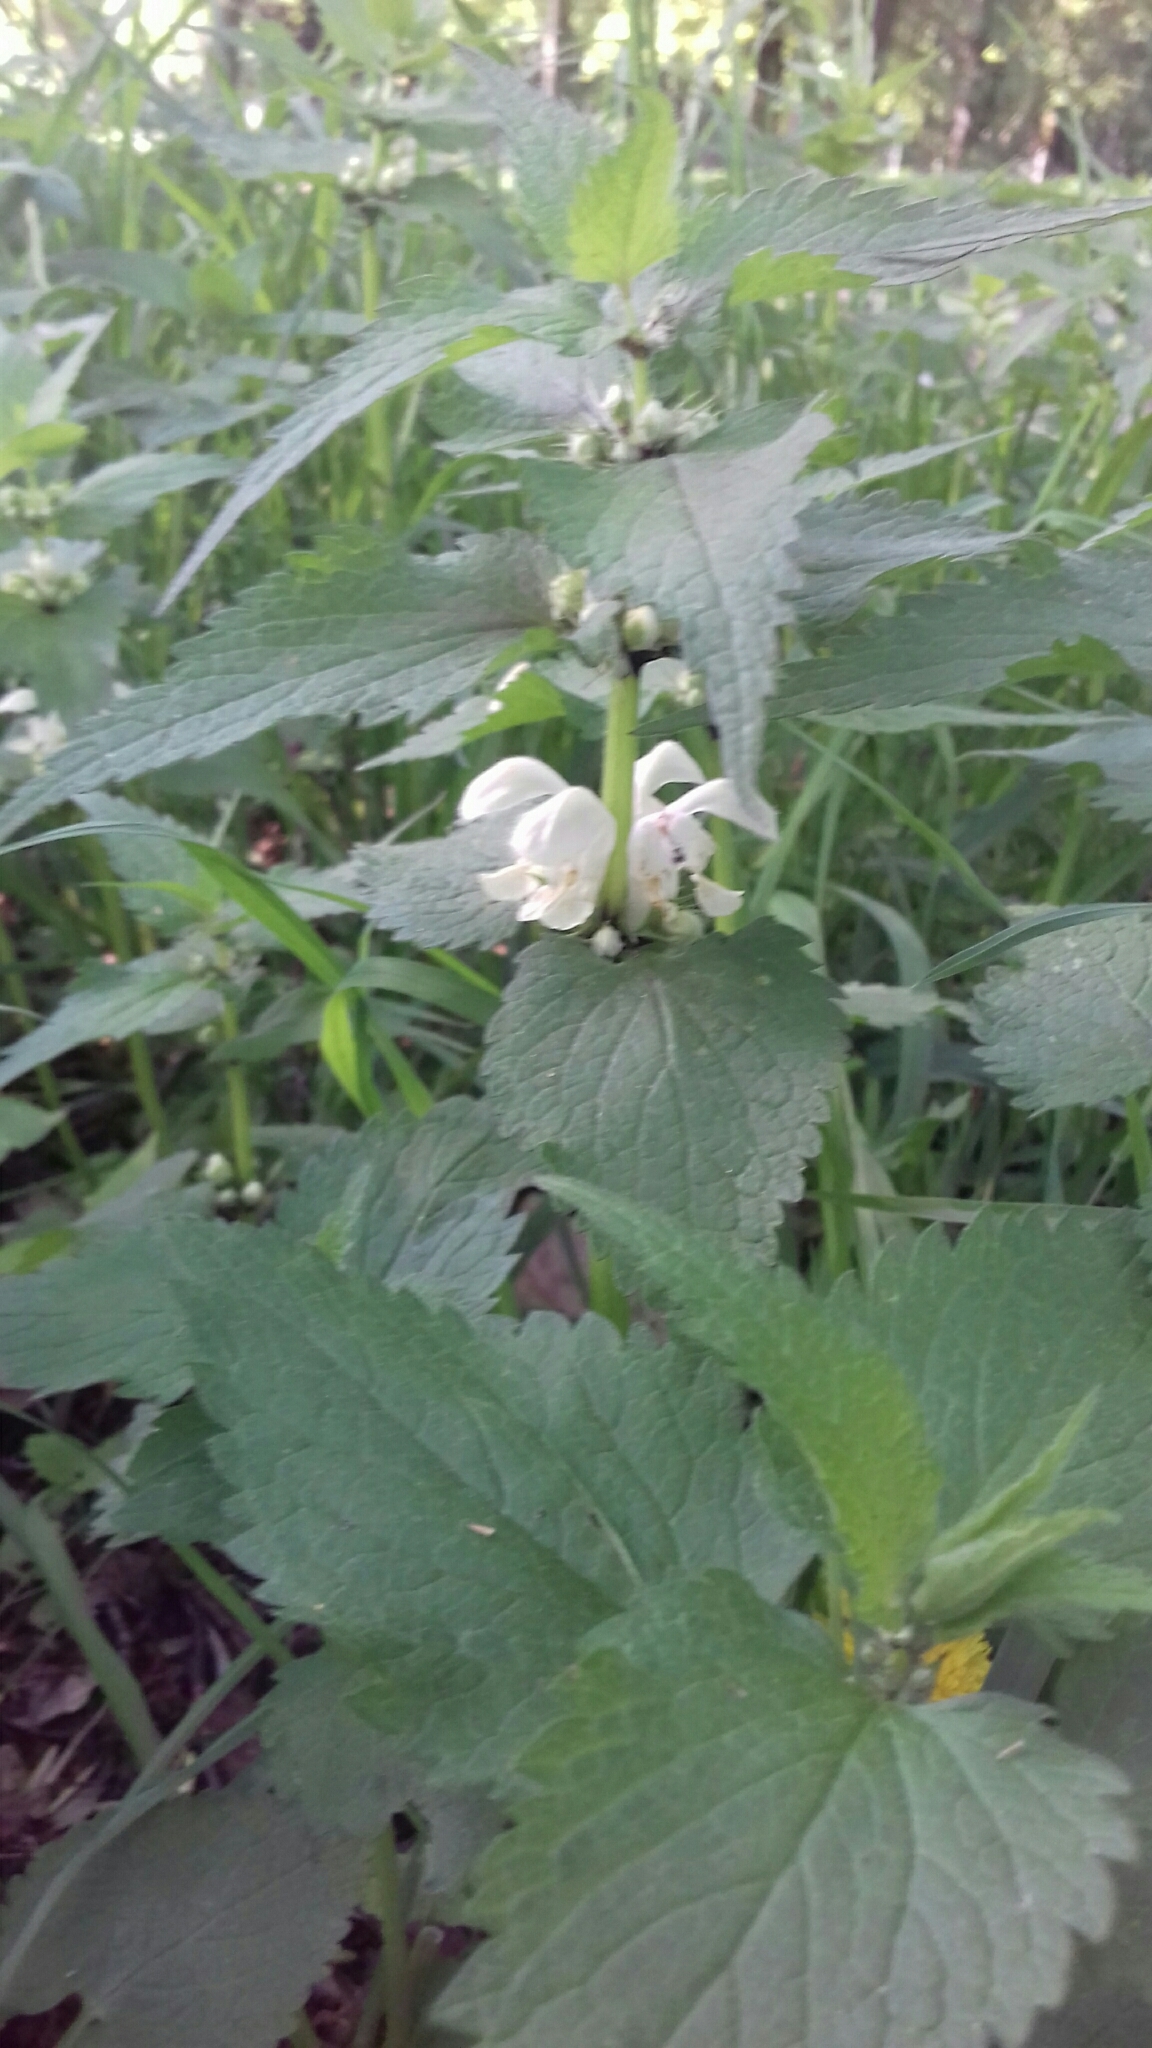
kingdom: Plantae
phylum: Tracheophyta
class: Magnoliopsida
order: Lamiales
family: Lamiaceae
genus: Lamium
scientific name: Lamium album
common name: White dead-nettle
